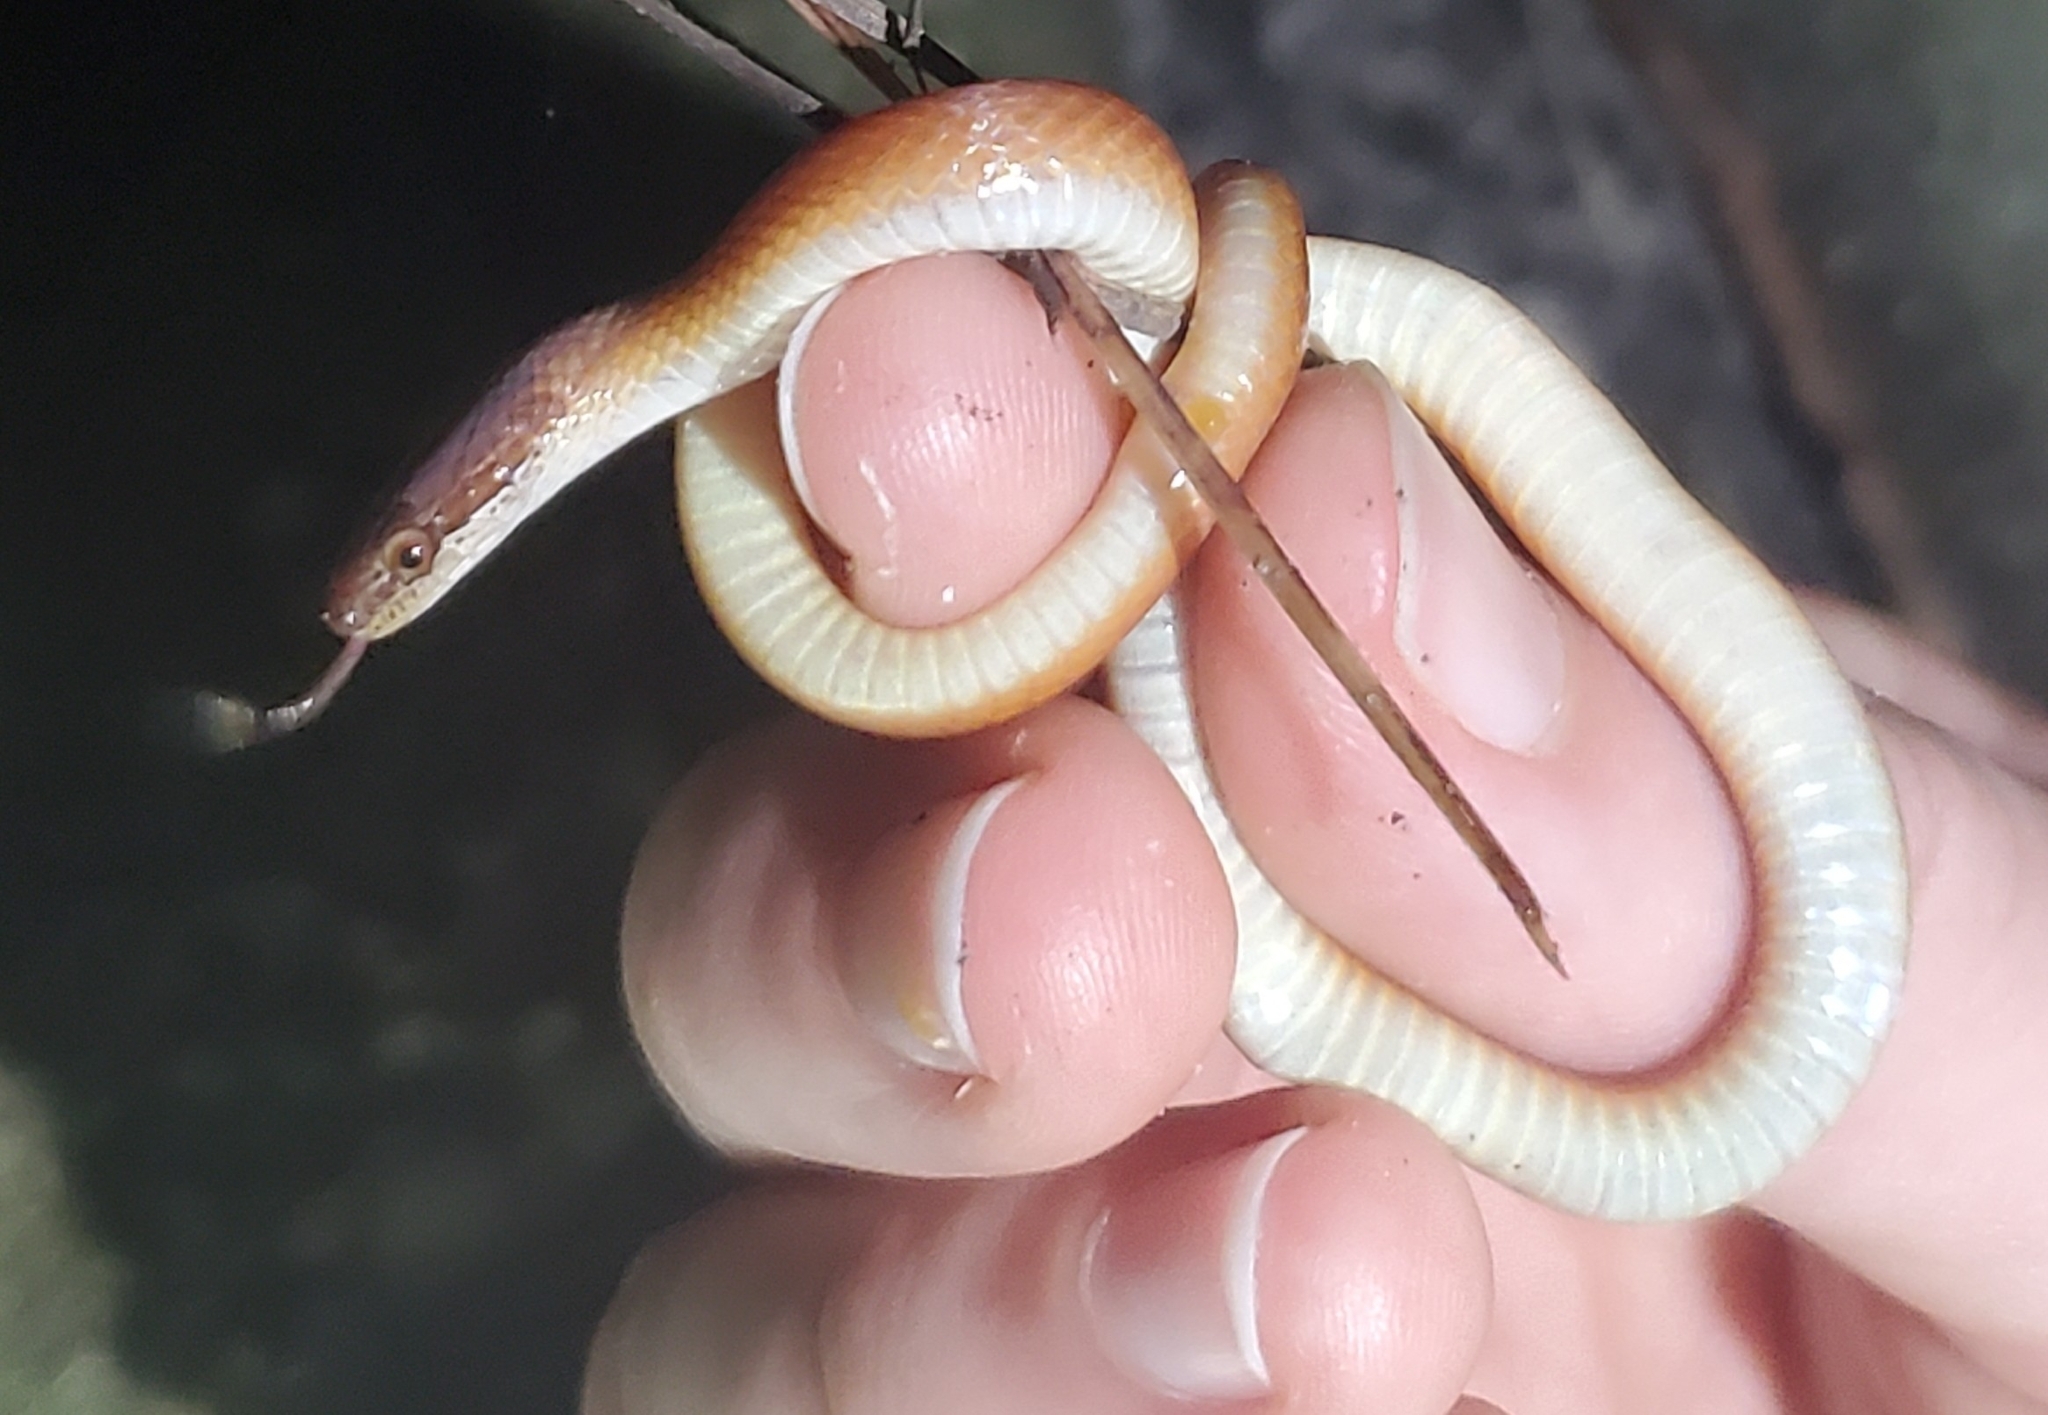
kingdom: Animalia
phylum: Chordata
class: Squamata
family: Colubridae
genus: Rhadinaea
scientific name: Rhadinaea flavilata
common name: Pine woods littersnake
